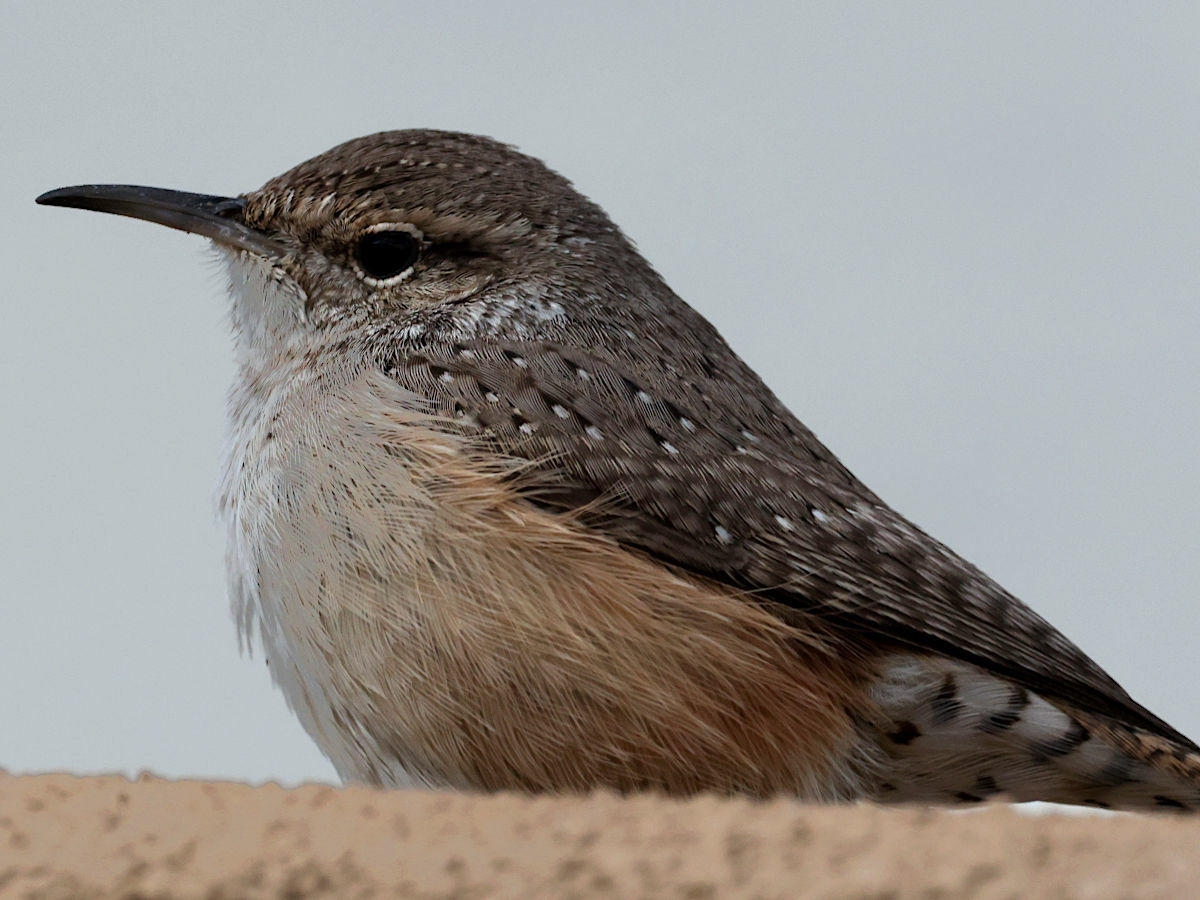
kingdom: Animalia
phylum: Chordata
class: Aves
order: Passeriformes
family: Troglodytidae
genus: Salpinctes
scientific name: Salpinctes obsoletus
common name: Rock wren
